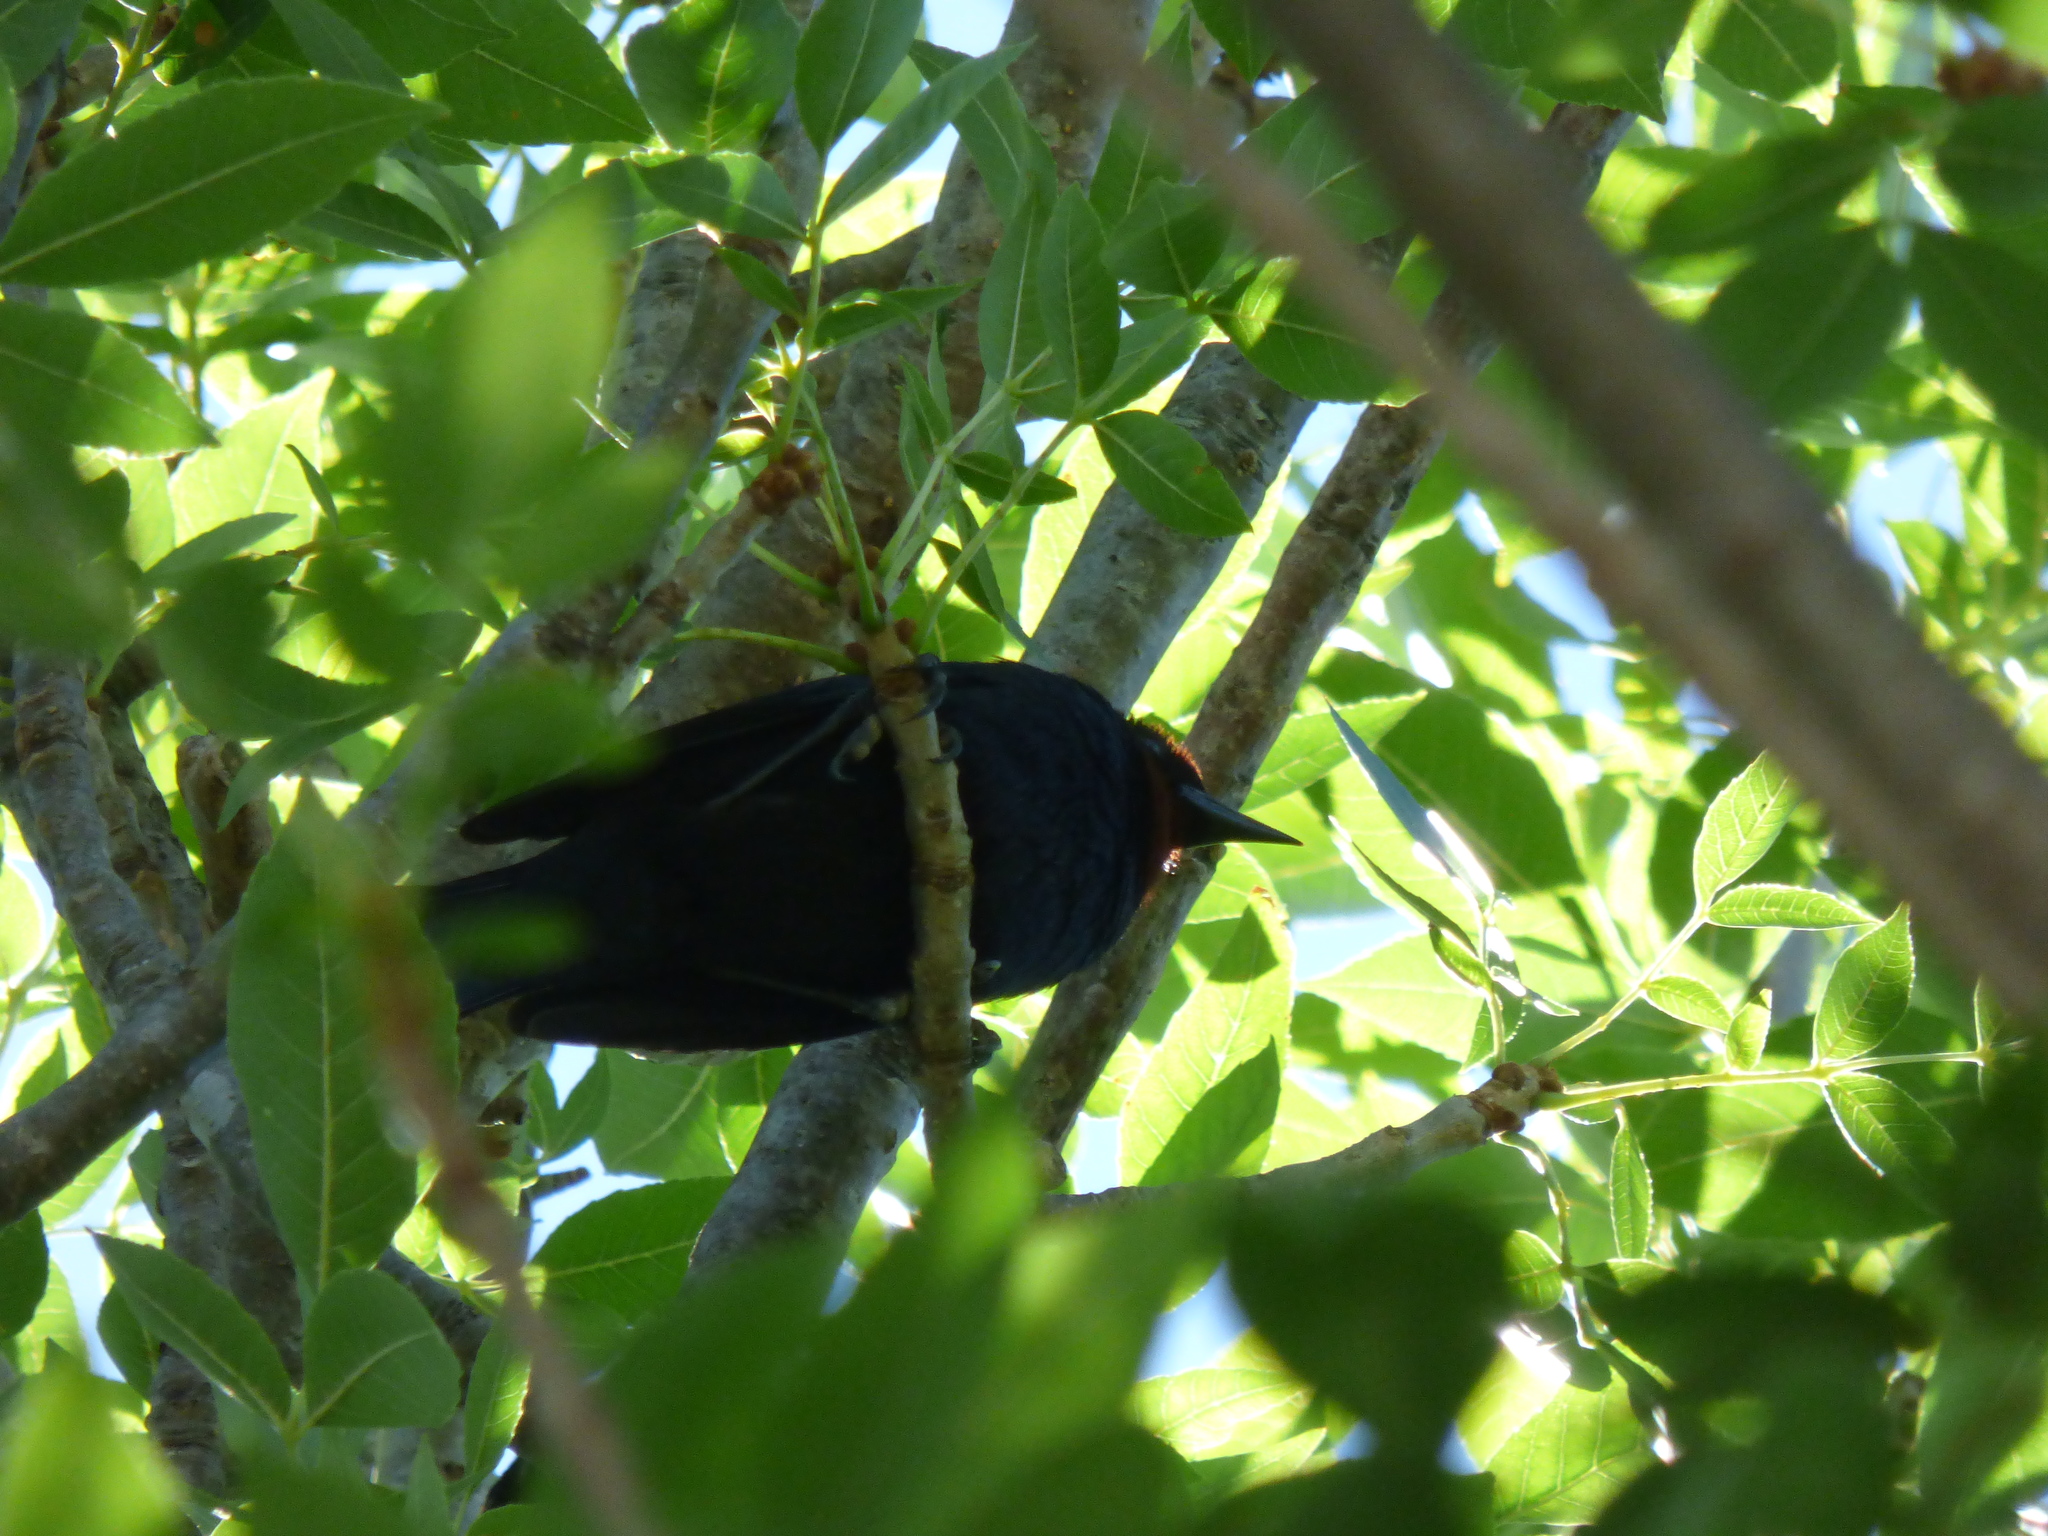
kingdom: Animalia
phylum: Chordata
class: Aves
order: Passeriformes
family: Icteridae
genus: Chrysomus
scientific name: Chrysomus ruficapillus
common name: Chestnut-capped blackbird
